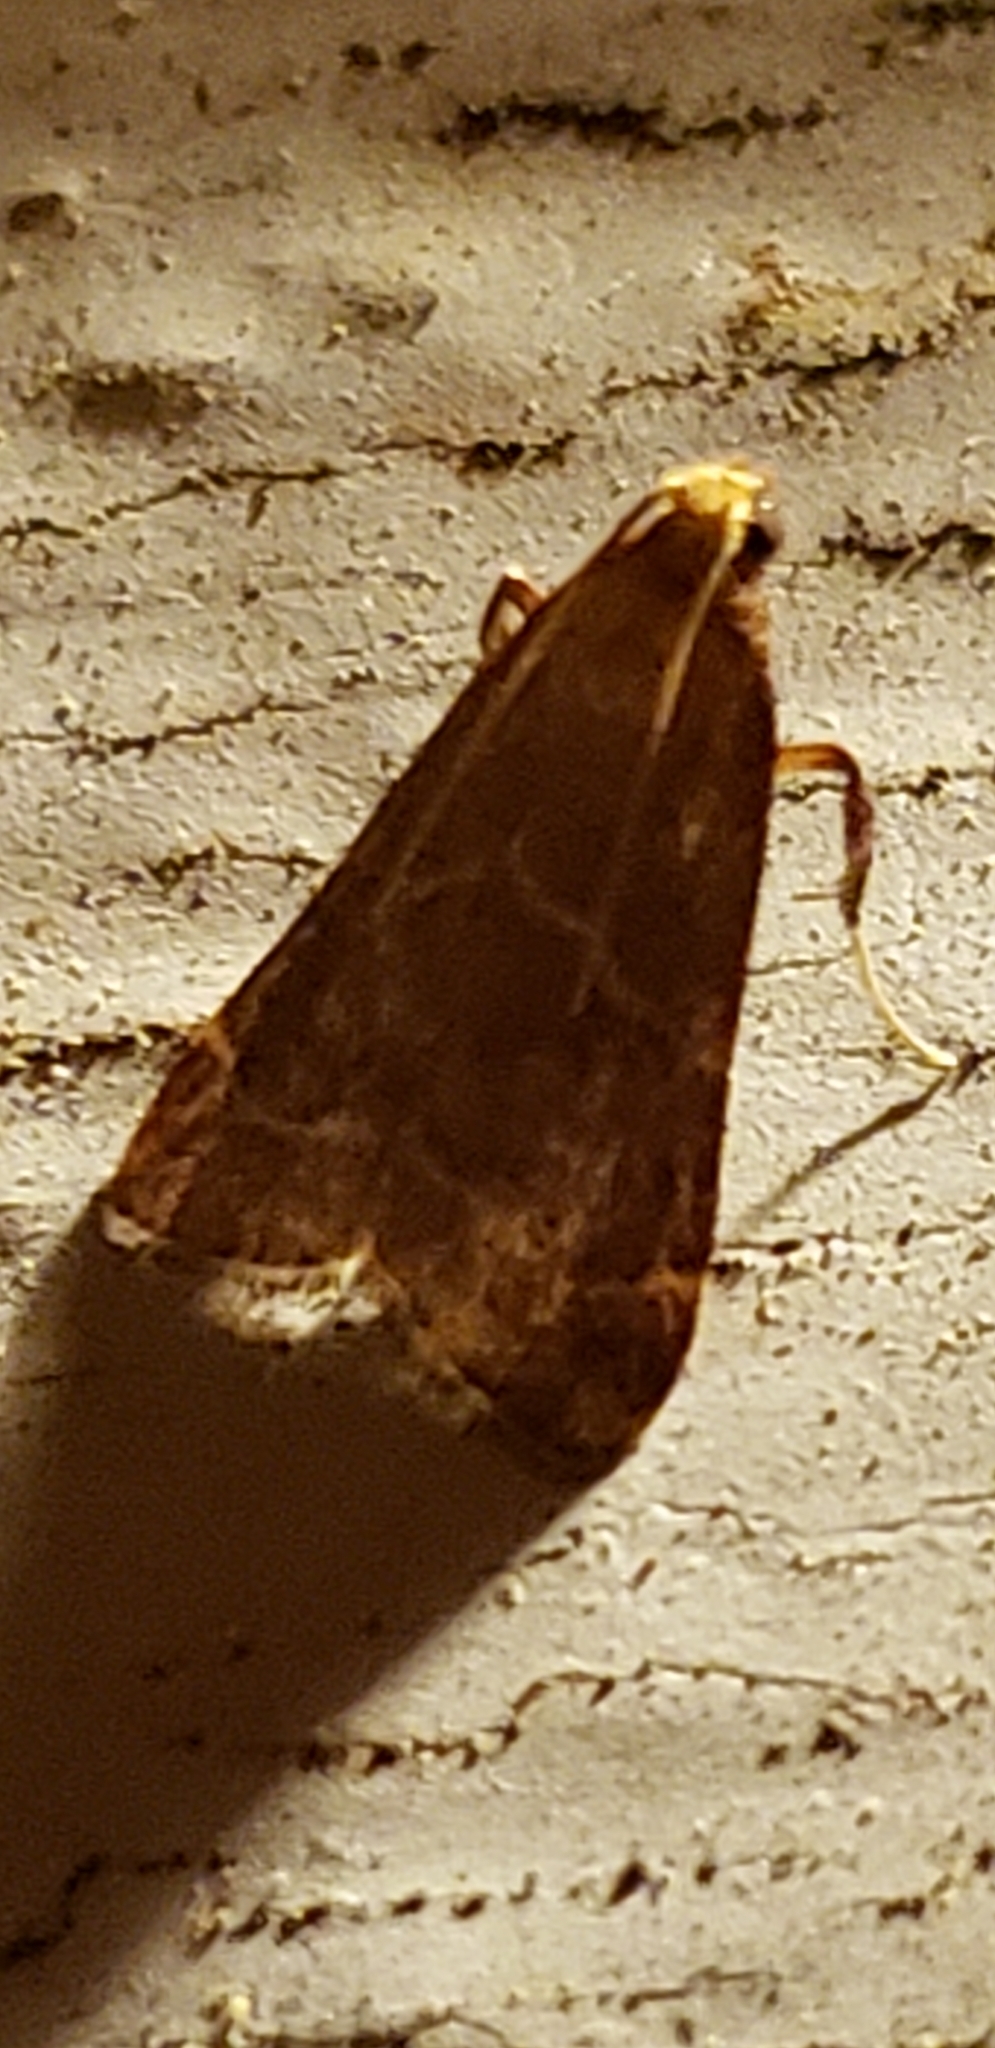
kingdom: Animalia
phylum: Arthropoda
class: Insecta
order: Lepidoptera
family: Pyralidae
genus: Arta
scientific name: Arta statalis
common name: Posturing arta moth
